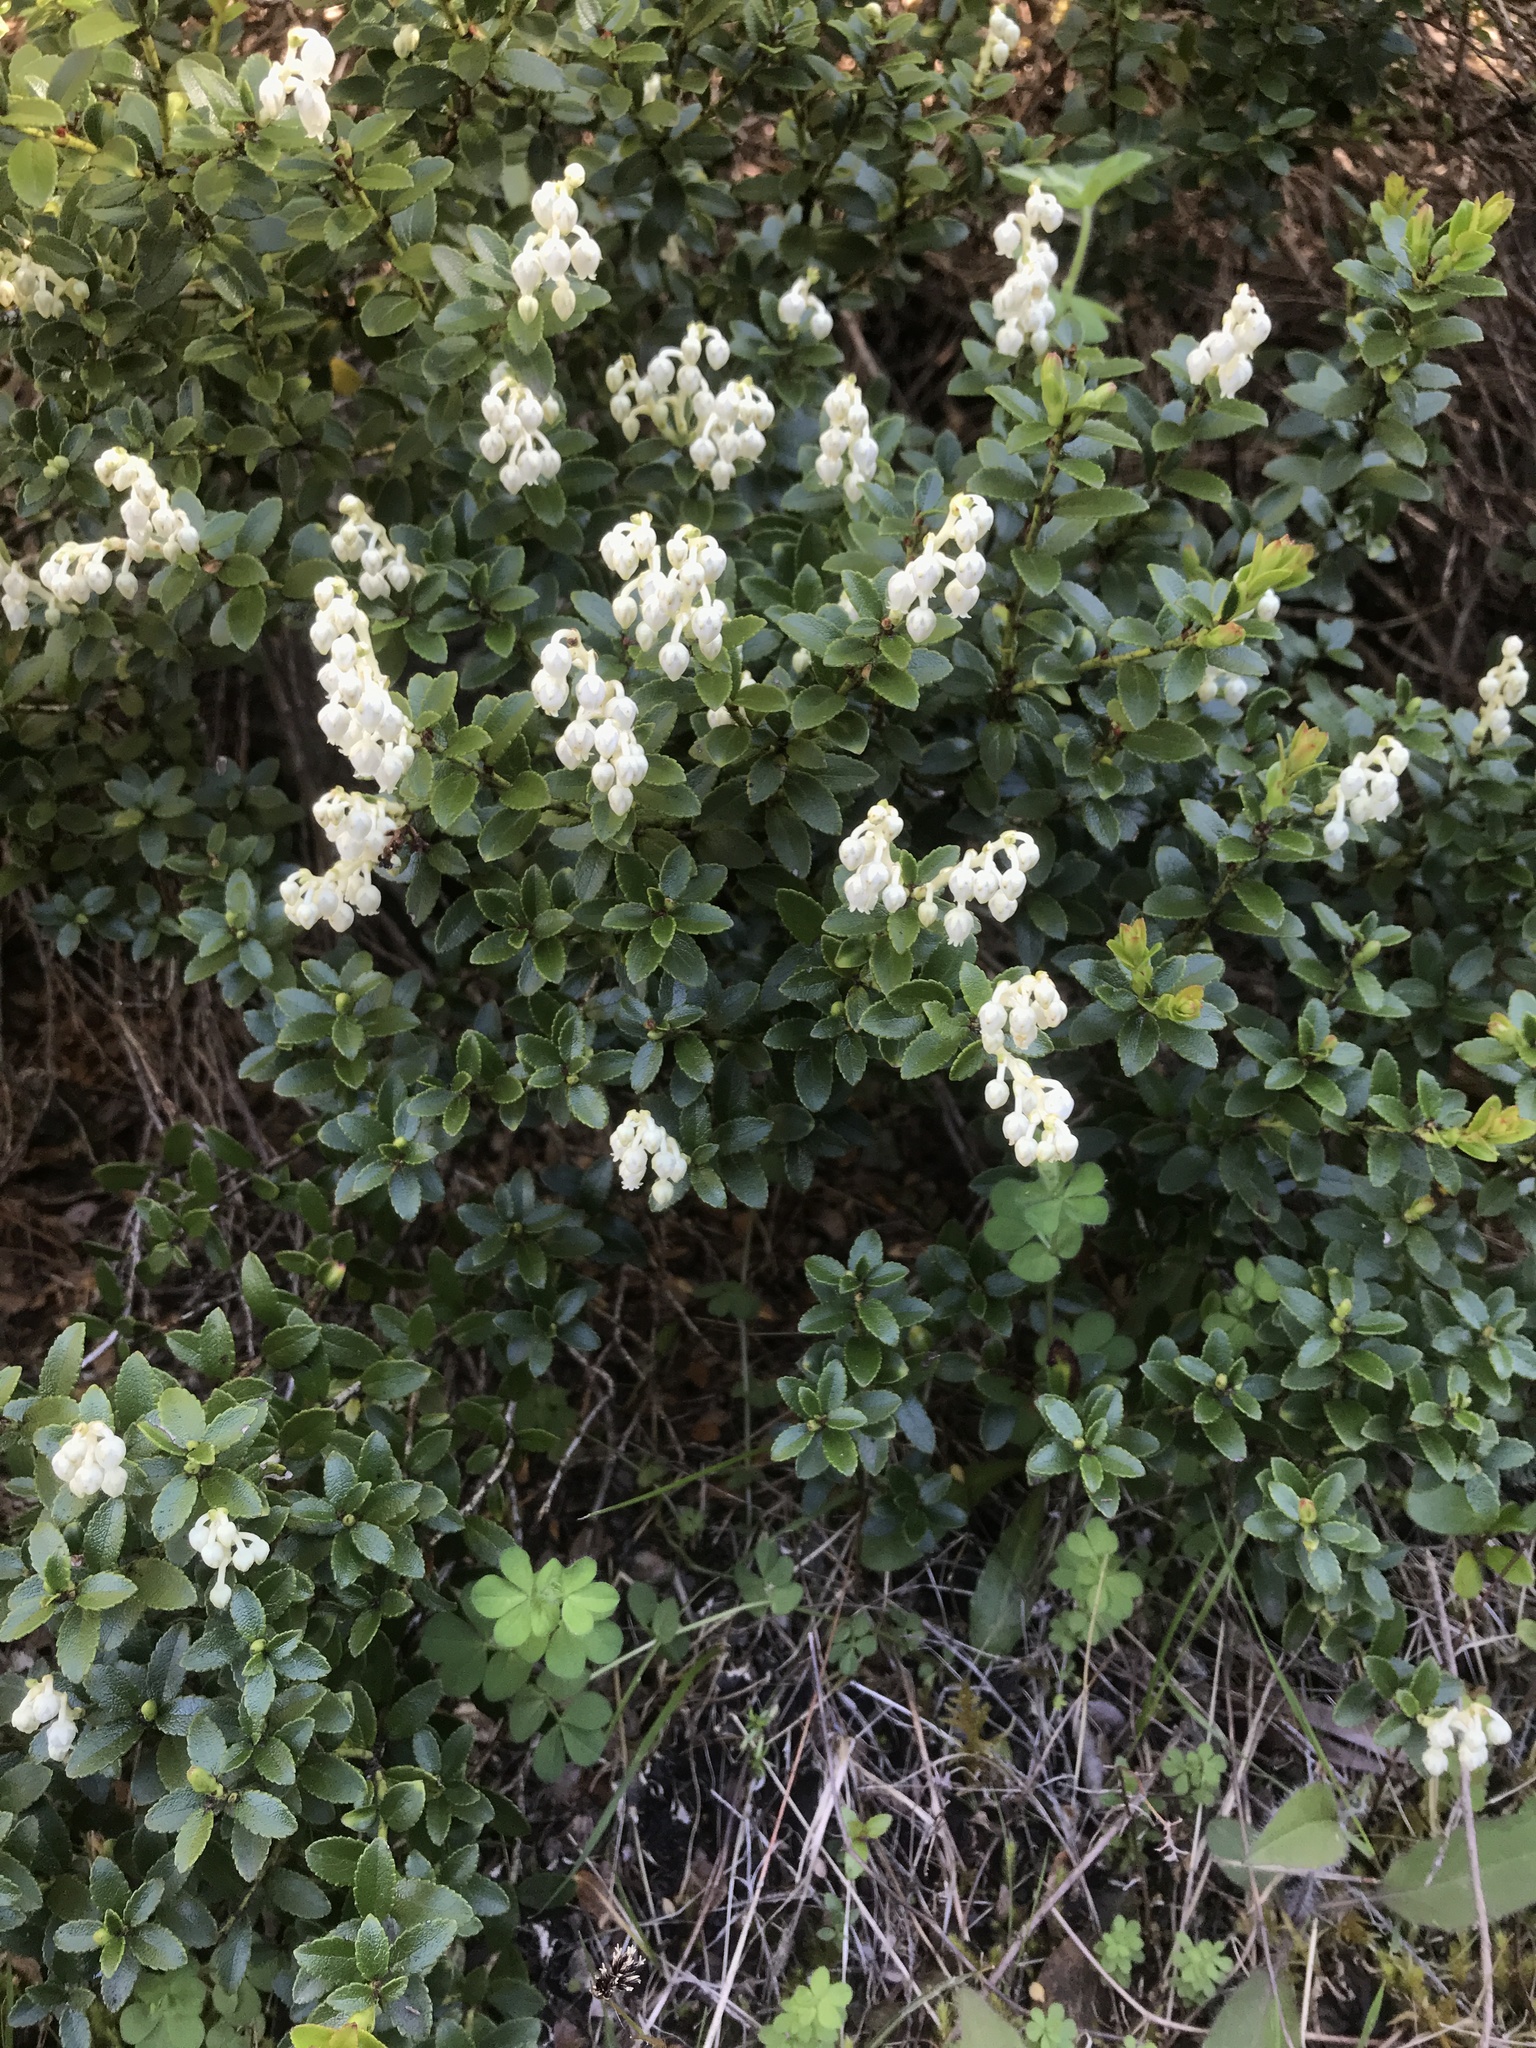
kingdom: Plantae
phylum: Tracheophyta
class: Magnoliopsida
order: Ericales
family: Ericaceae
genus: Gaultheria
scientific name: Gaultheria crassa
